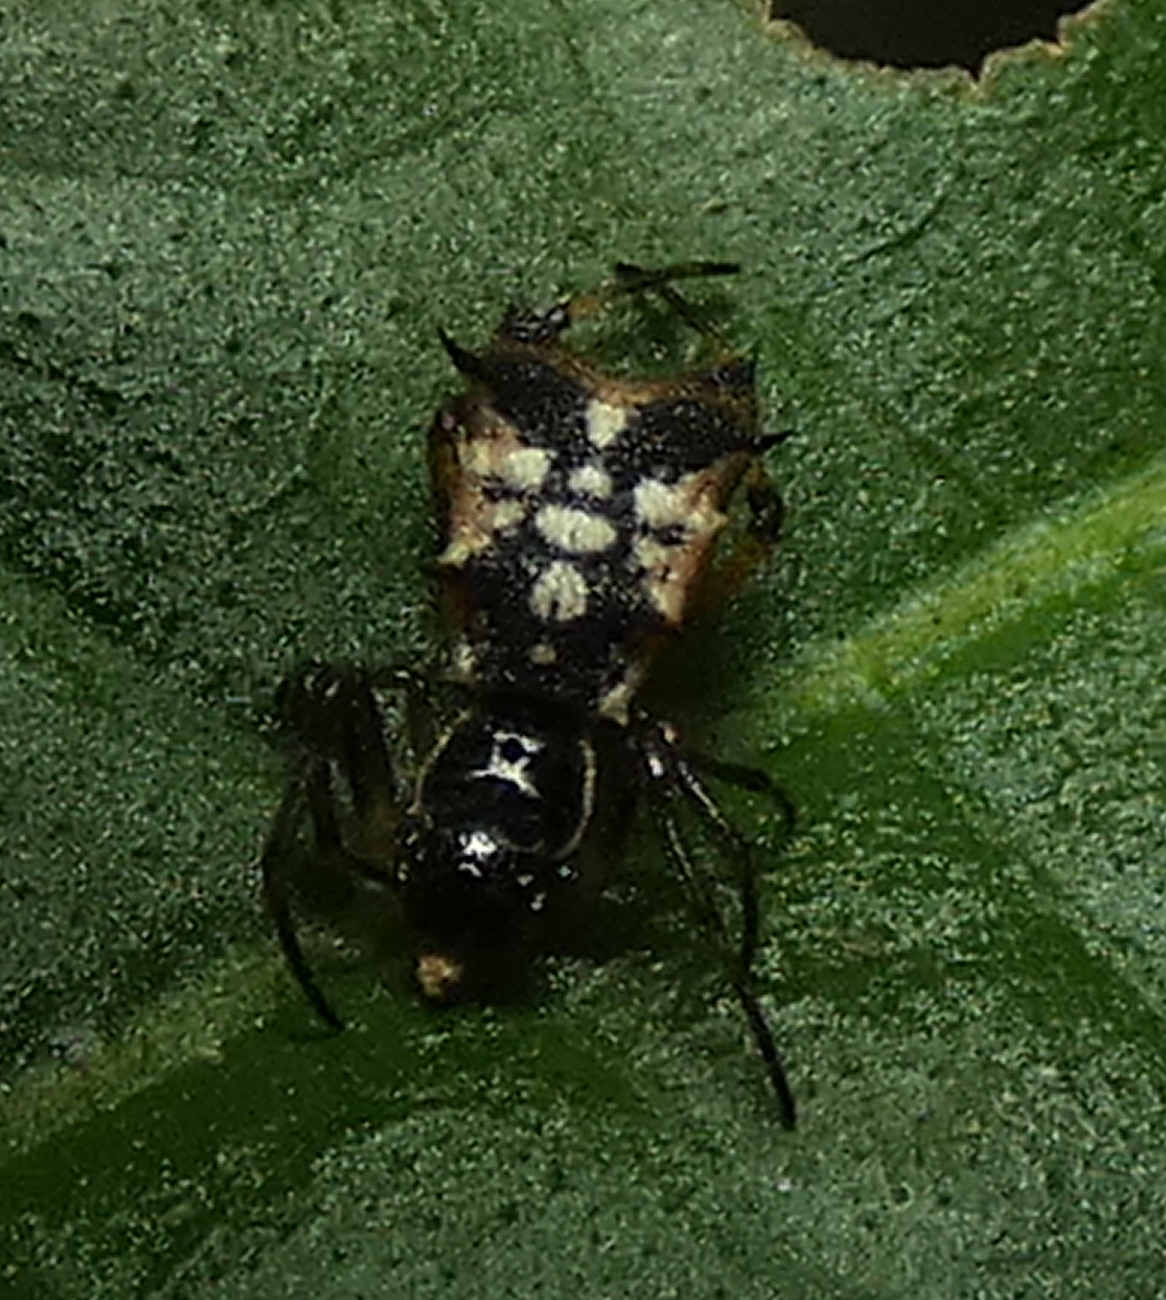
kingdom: Animalia
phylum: Arthropoda
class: Arachnida
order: Araneae
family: Araneidae
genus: Micrathena
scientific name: Micrathena picta
